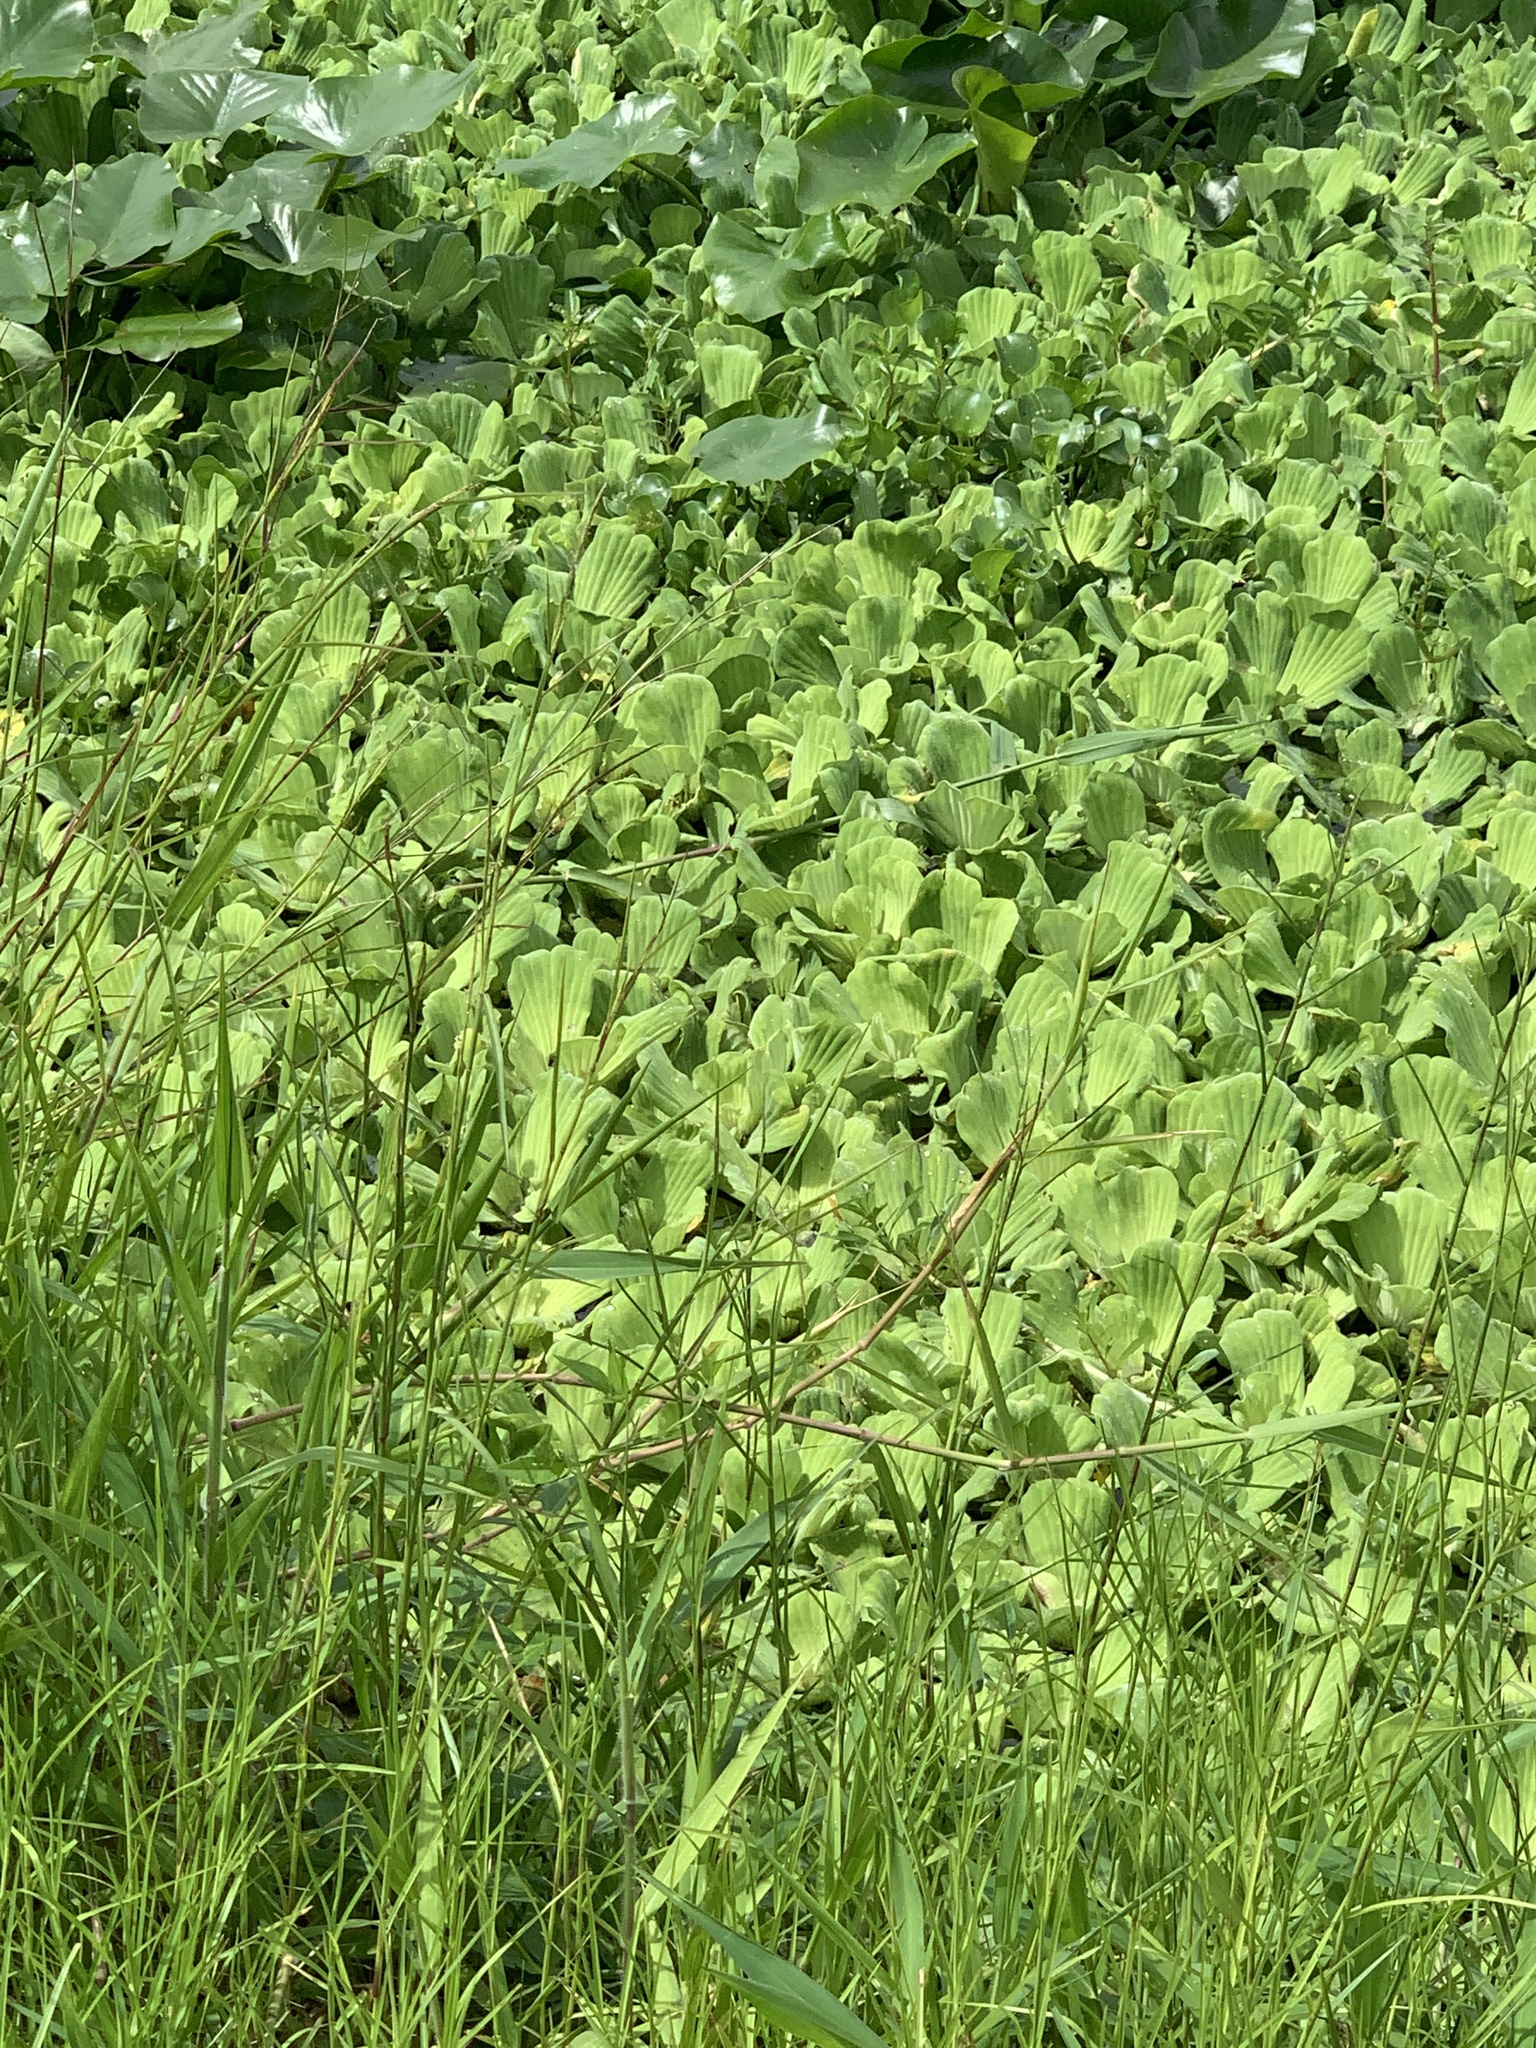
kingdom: Plantae
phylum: Tracheophyta
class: Liliopsida
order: Alismatales
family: Araceae
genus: Pistia
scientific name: Pistia stratiotes
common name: Water lettuce
